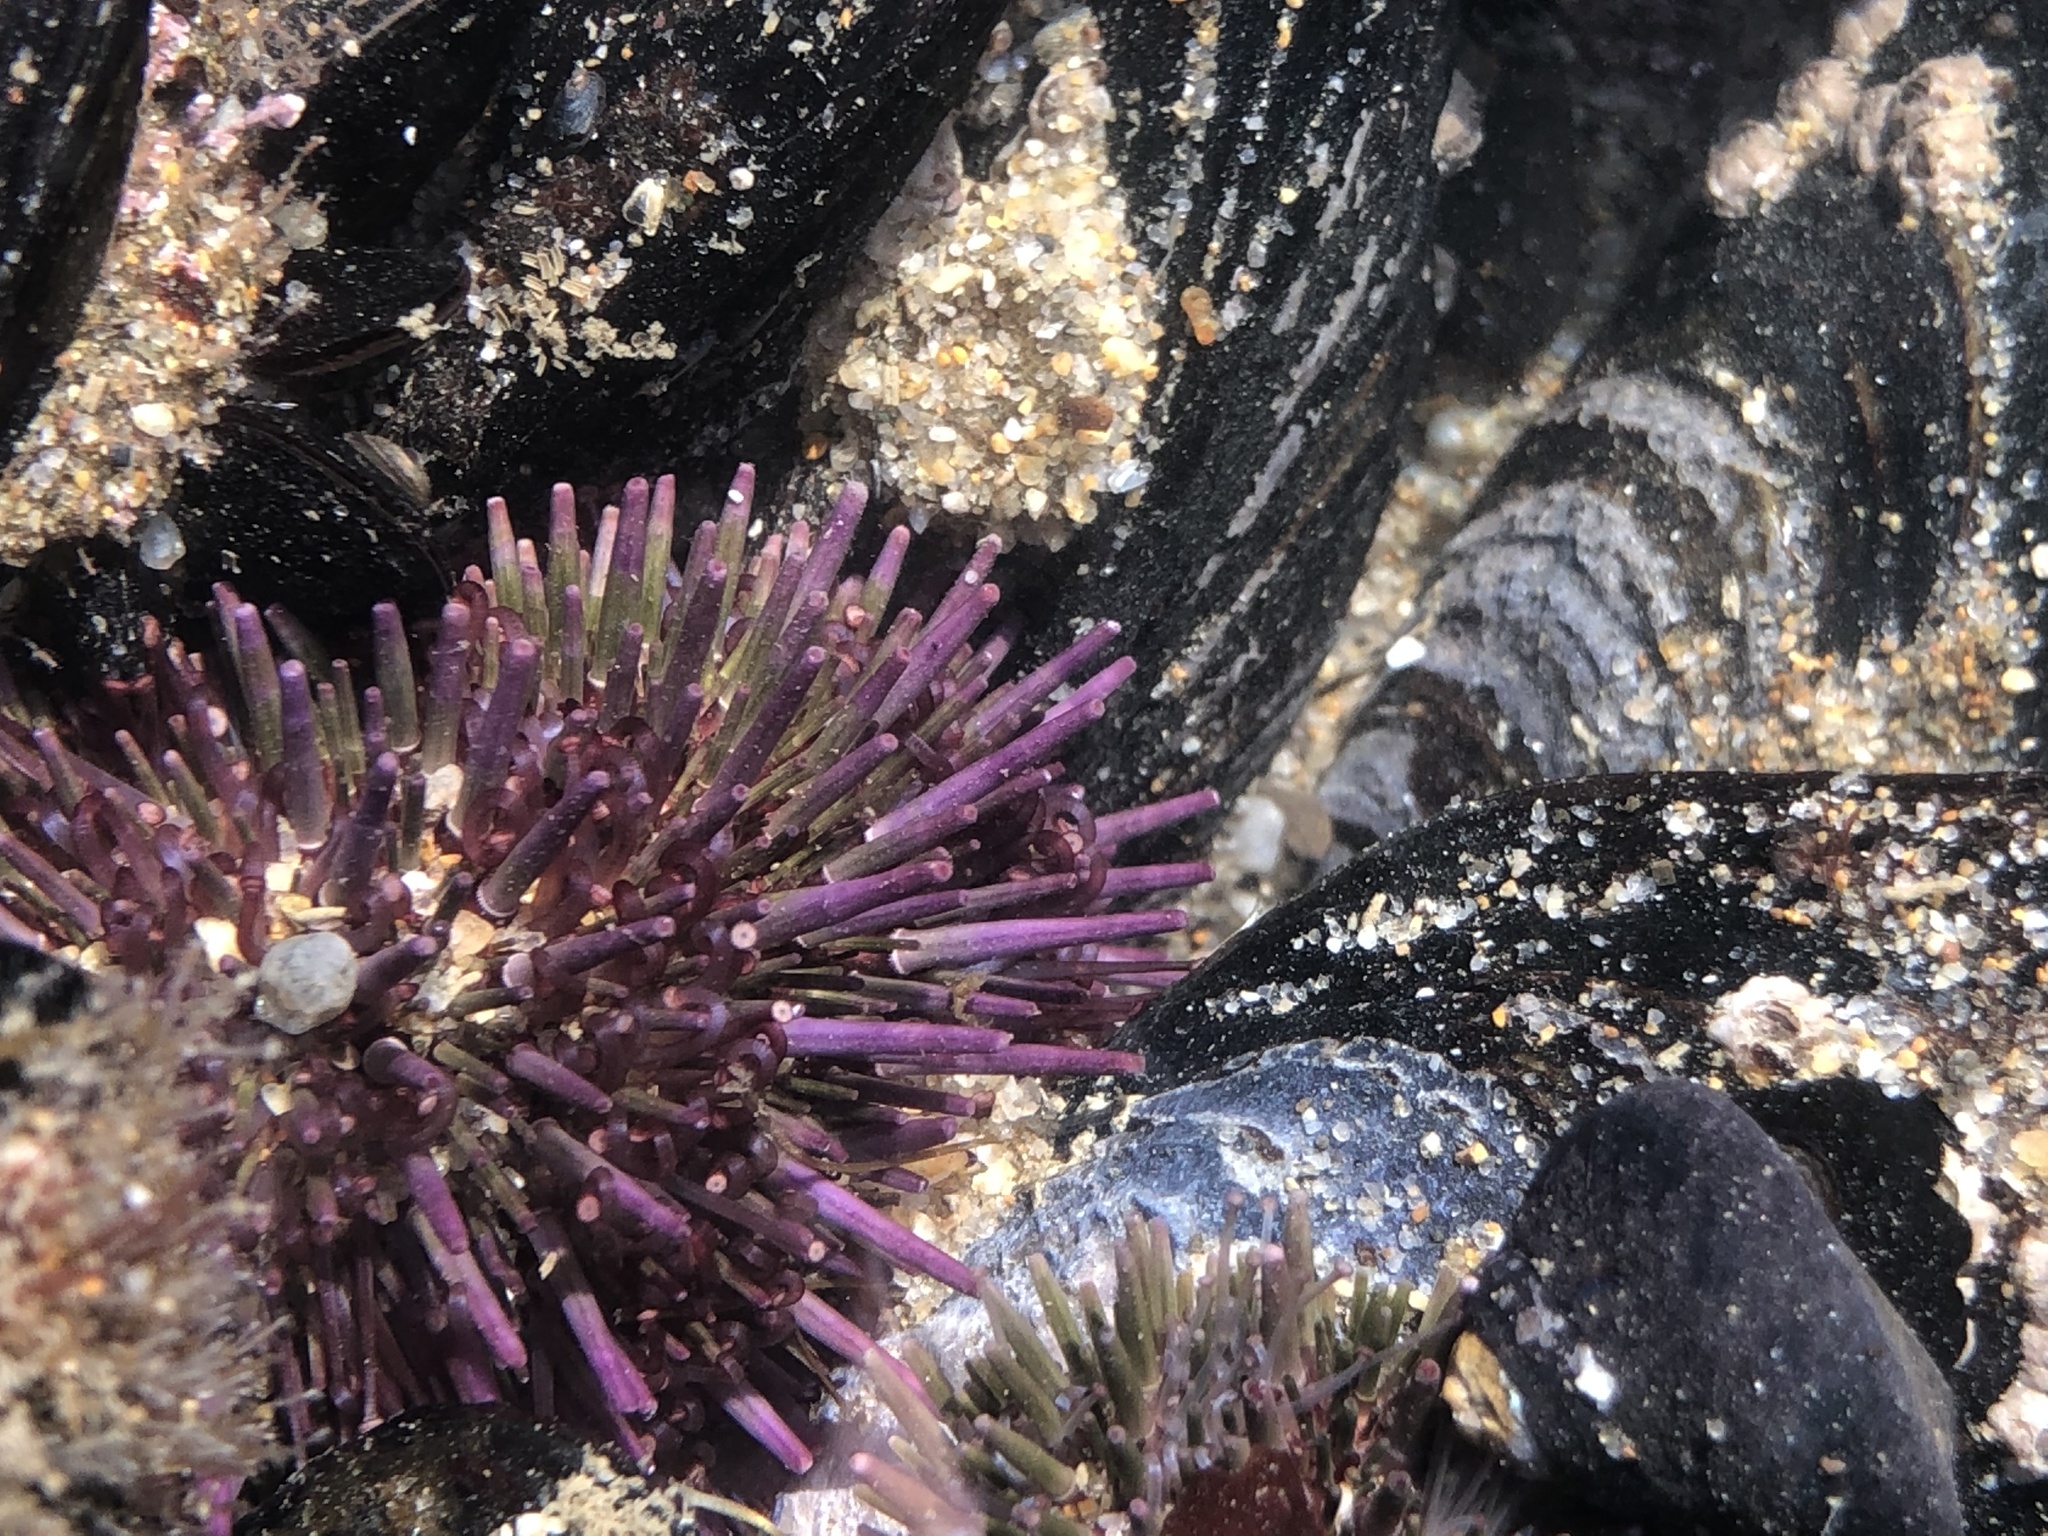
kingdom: Animalia
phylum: Echinodermata
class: Echinoidea
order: Camarodonta
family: Strongylocentrotidae
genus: Strongylocentrotus
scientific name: Strongylocentrotus purpuratus
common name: Purple sea urchin
